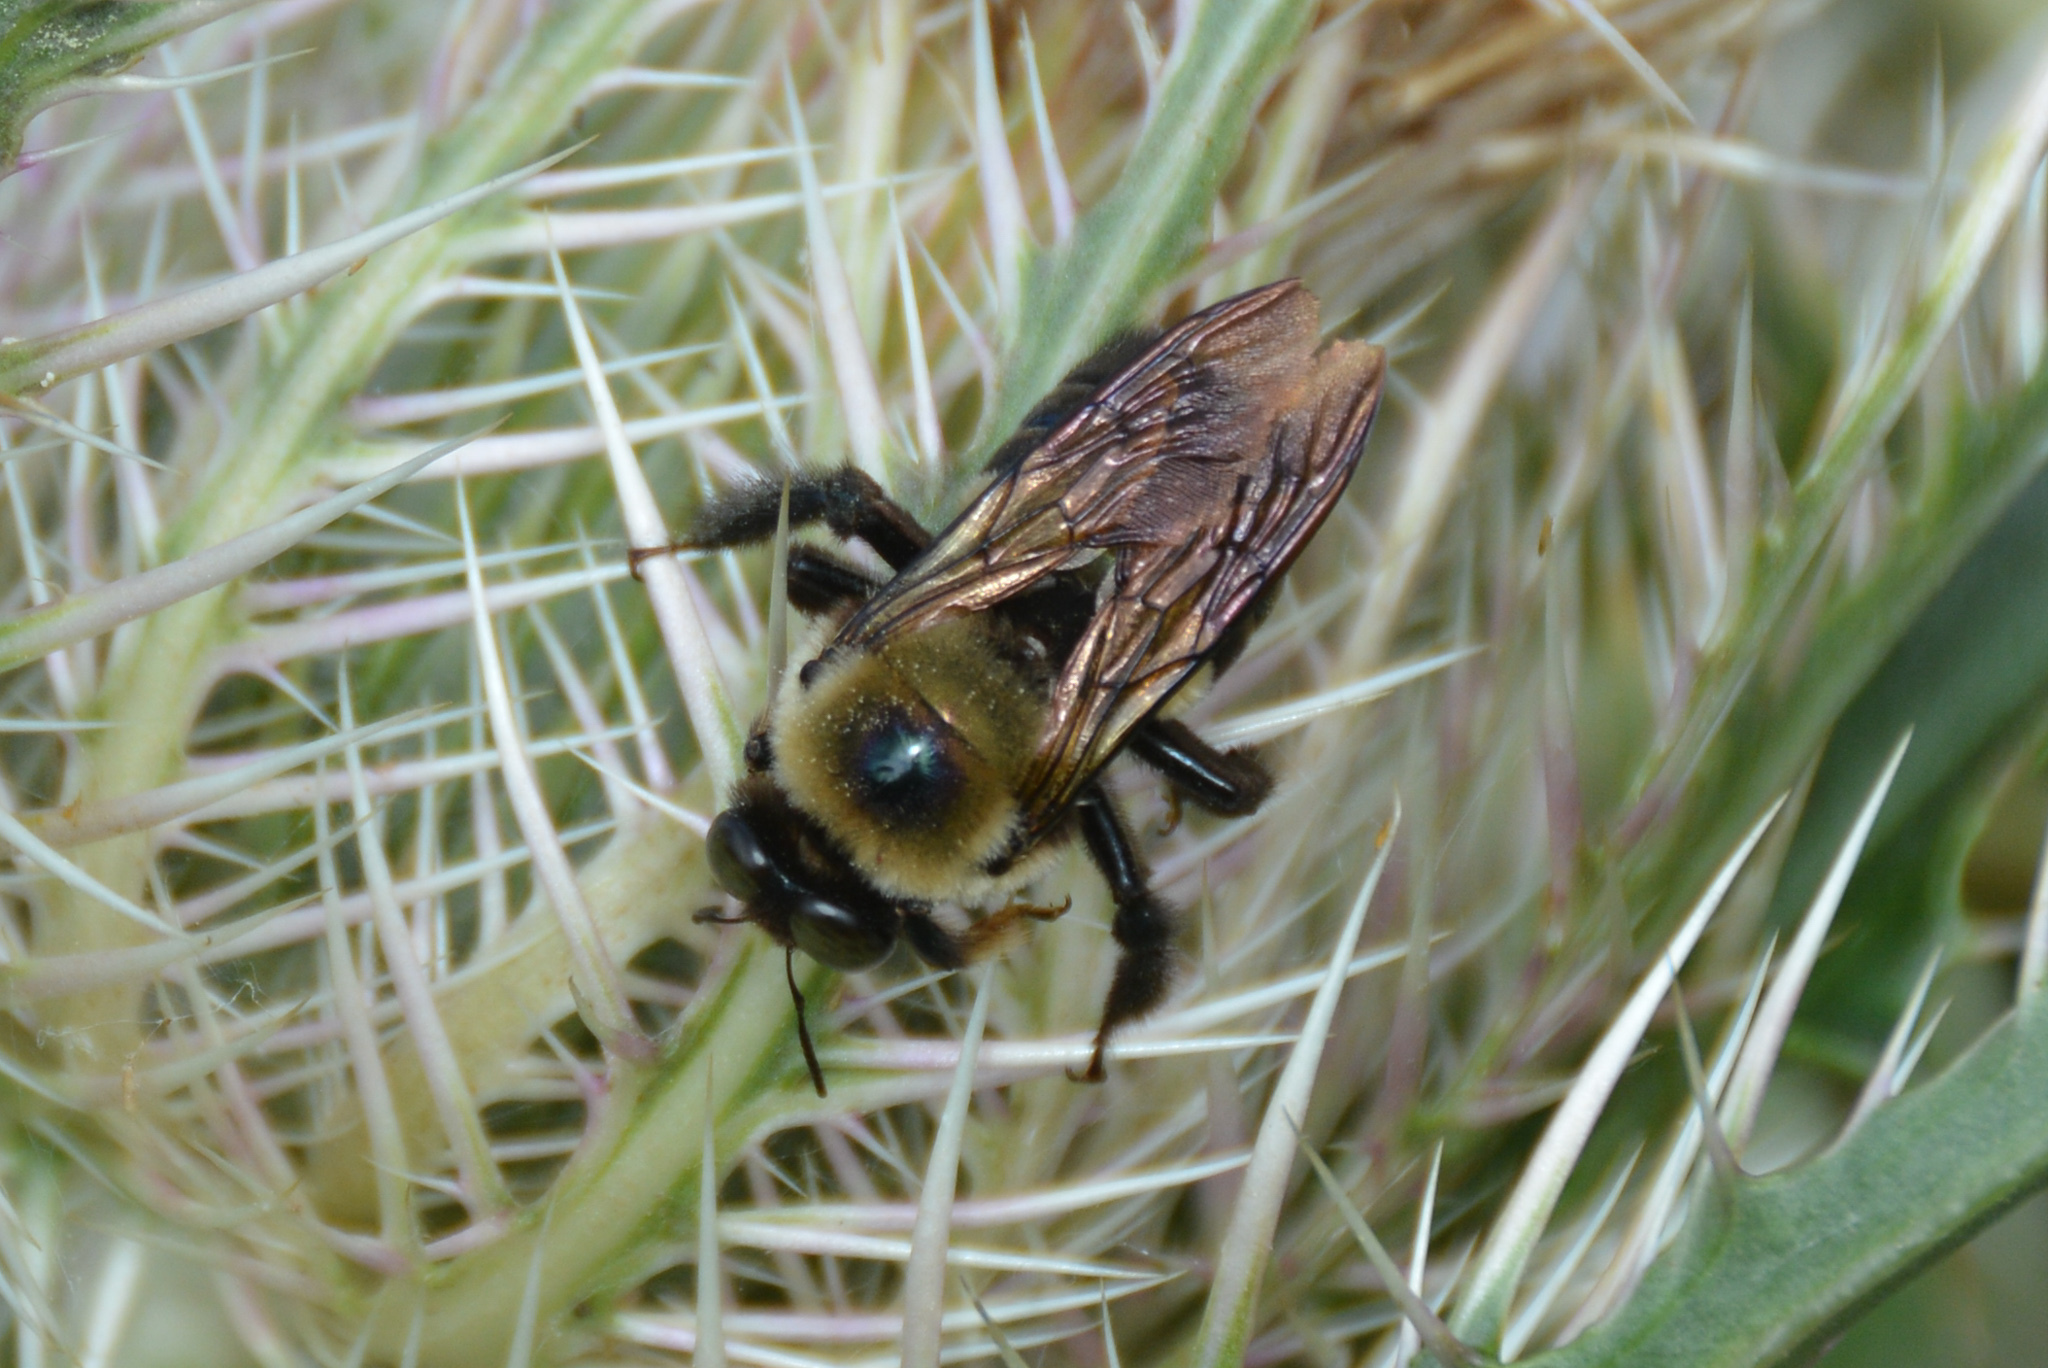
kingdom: Animalia
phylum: Arthropoda
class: Insecta
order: Hymenoptera
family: Apidae
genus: Xylocopa
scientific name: Xylocopa virginica
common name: Carpenter bee
